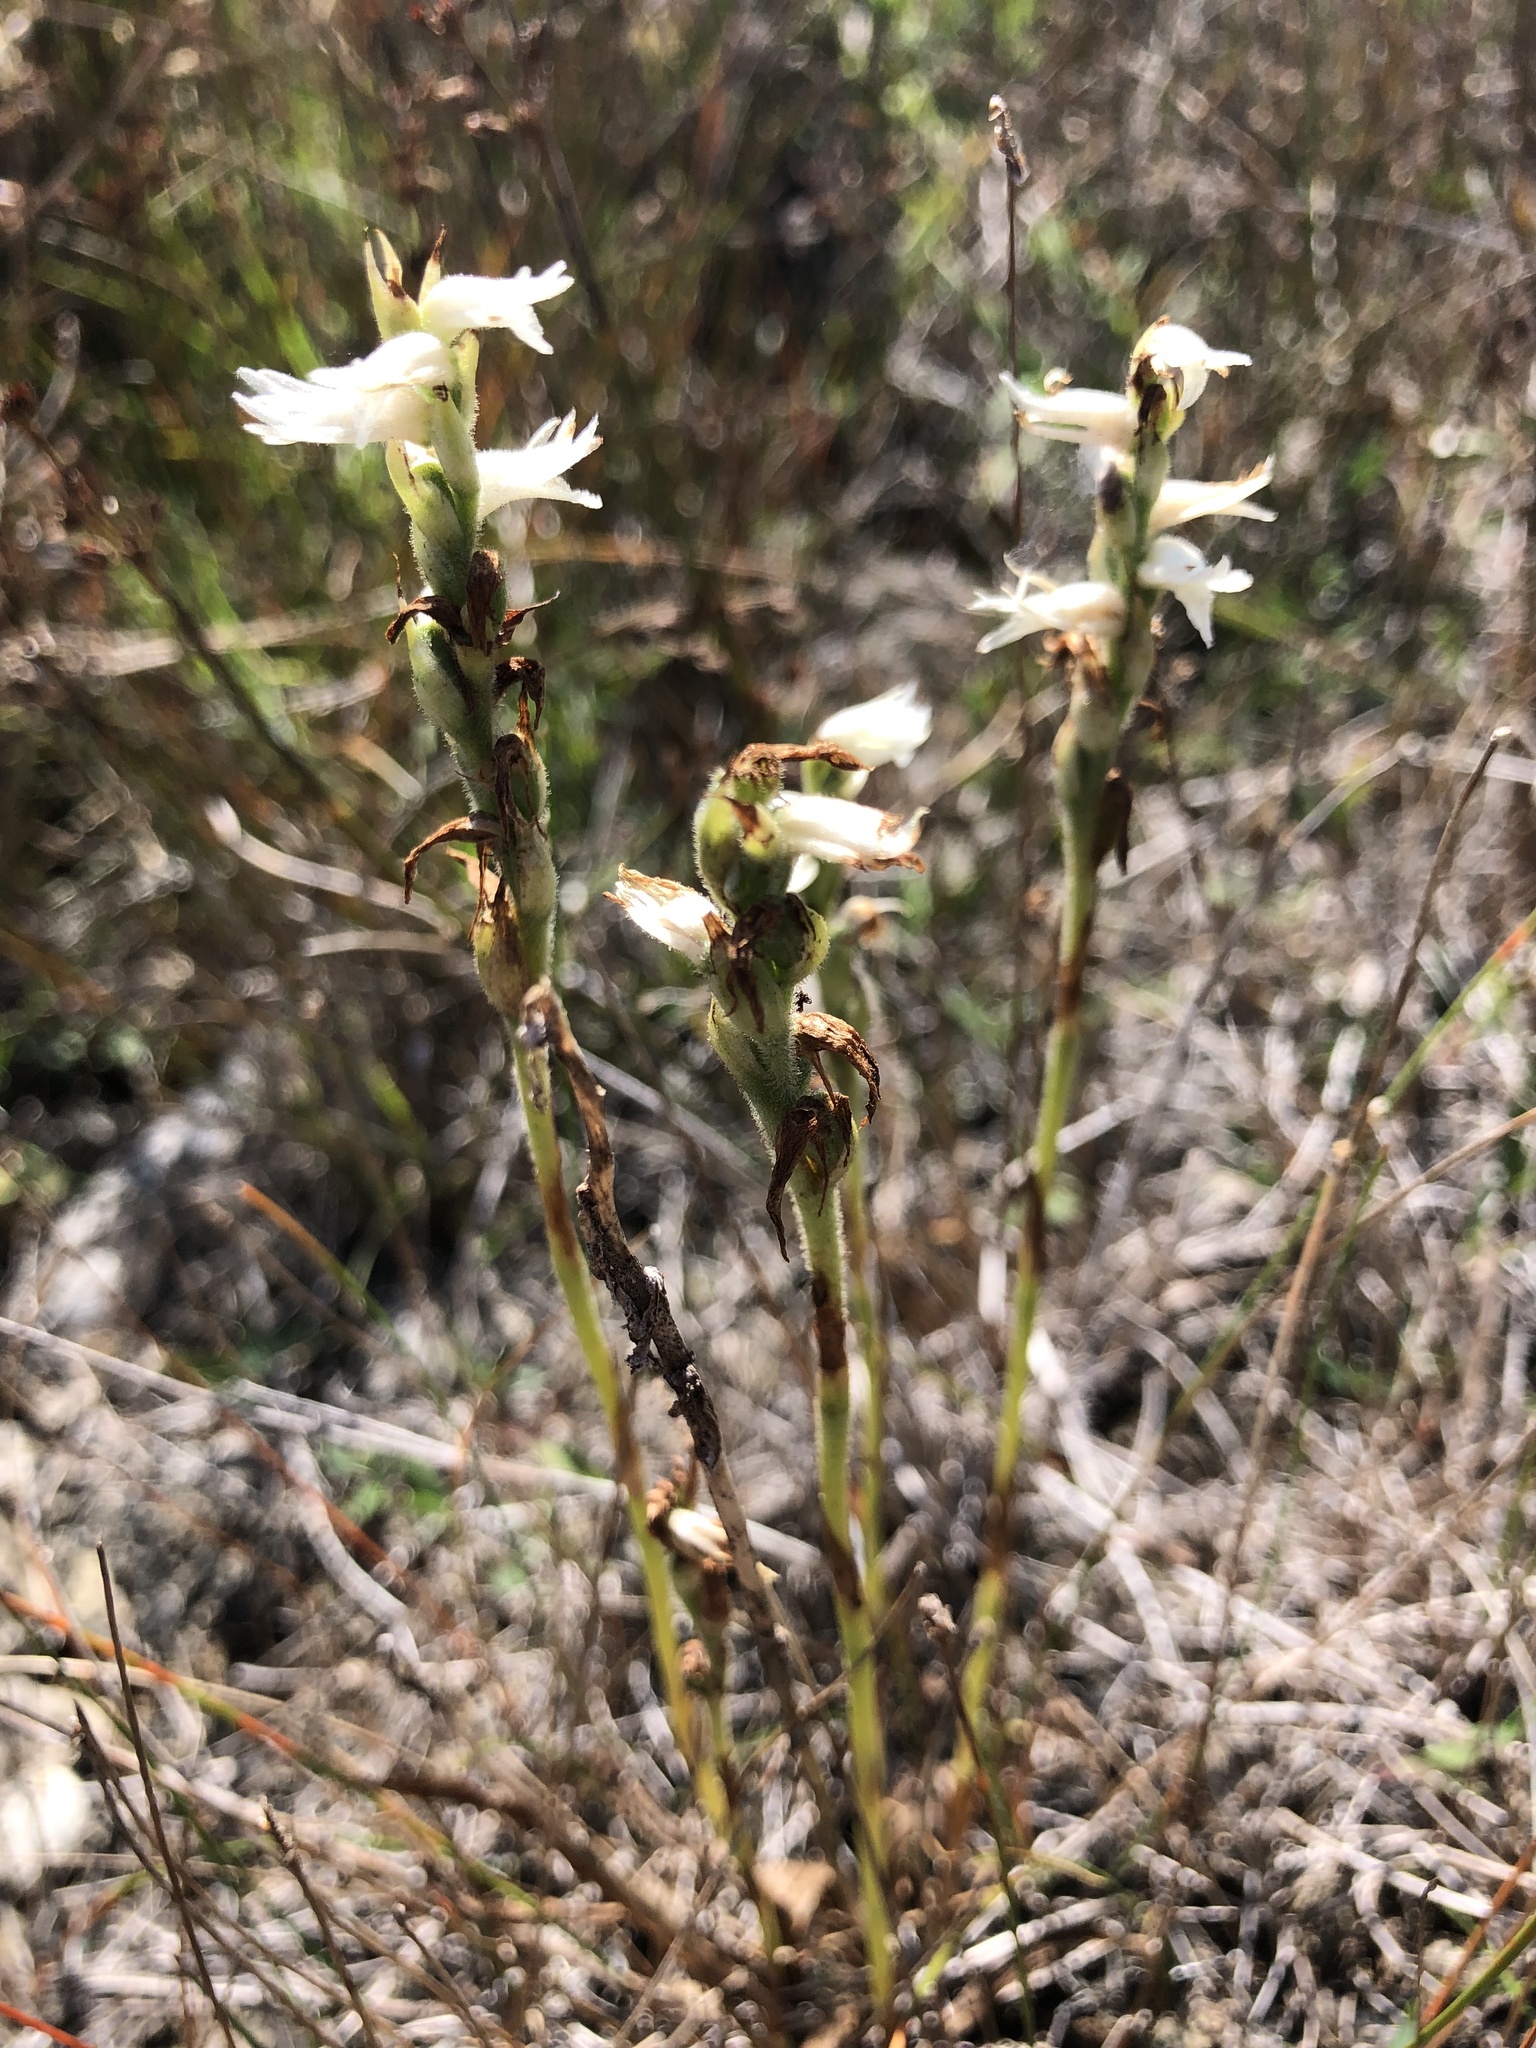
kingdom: Plantae
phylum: Tracheophyta
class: Liliopsida
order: Asparagales
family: Orchidaceae
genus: Spiranthes
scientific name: Spiranthes incurva
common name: Sphinx ladies'-tresses
